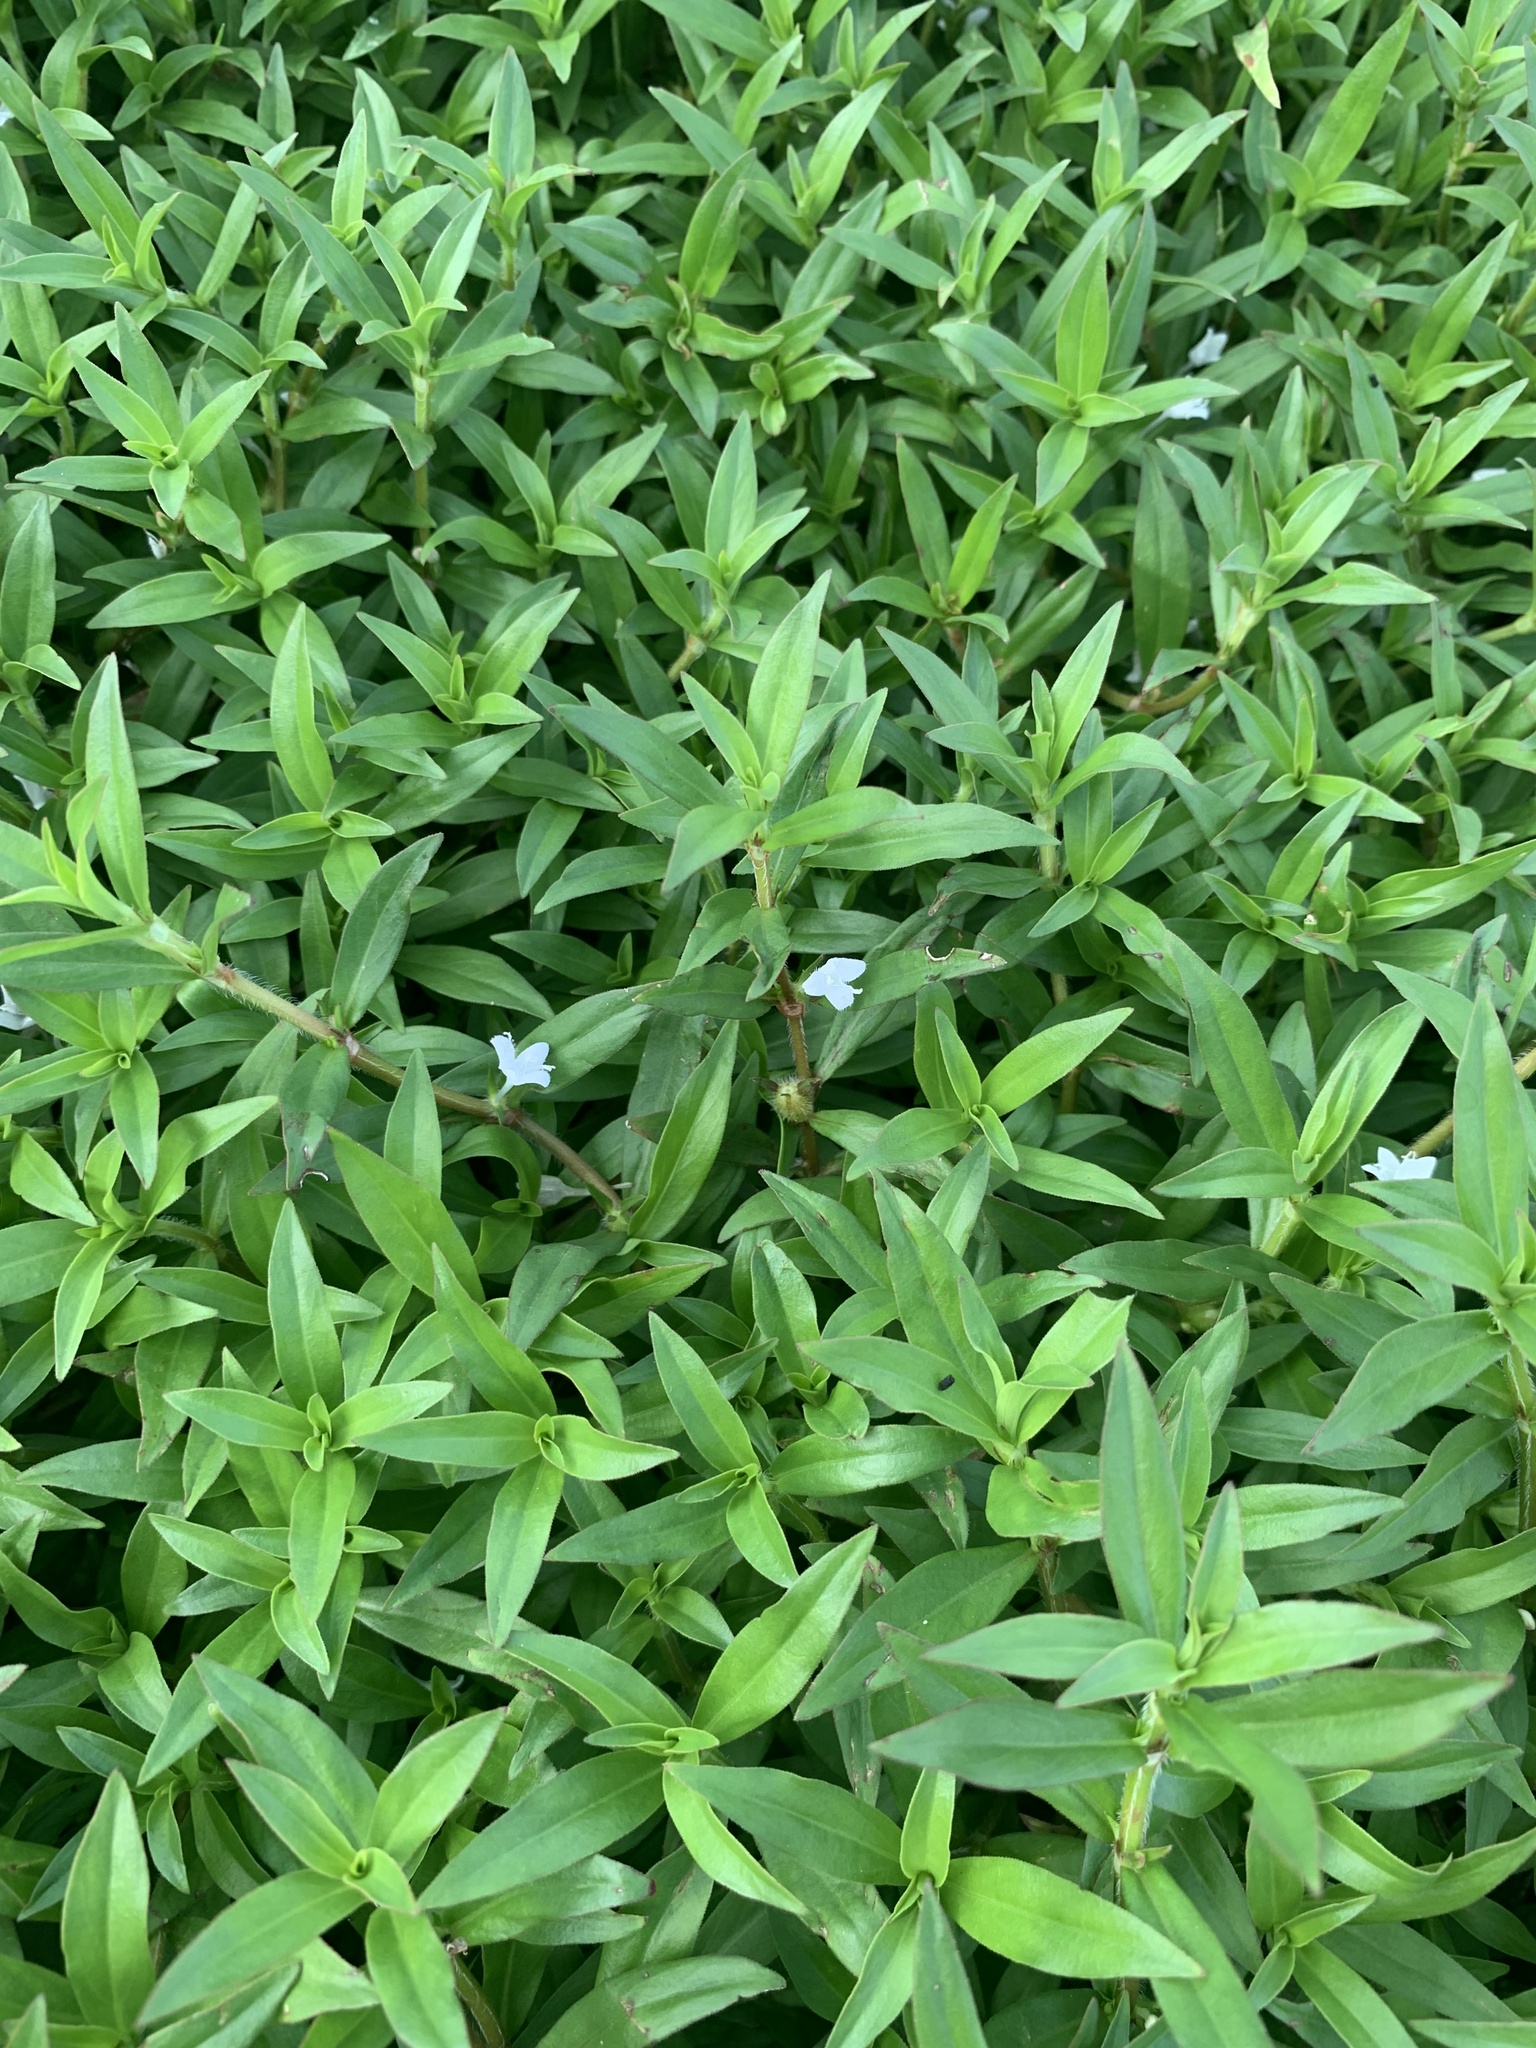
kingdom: Plantae
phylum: Tracheophyta
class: Magnoliopsida
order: Gentianales
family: Rubiaceae
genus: Diodia
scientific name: Diodia virginiana
